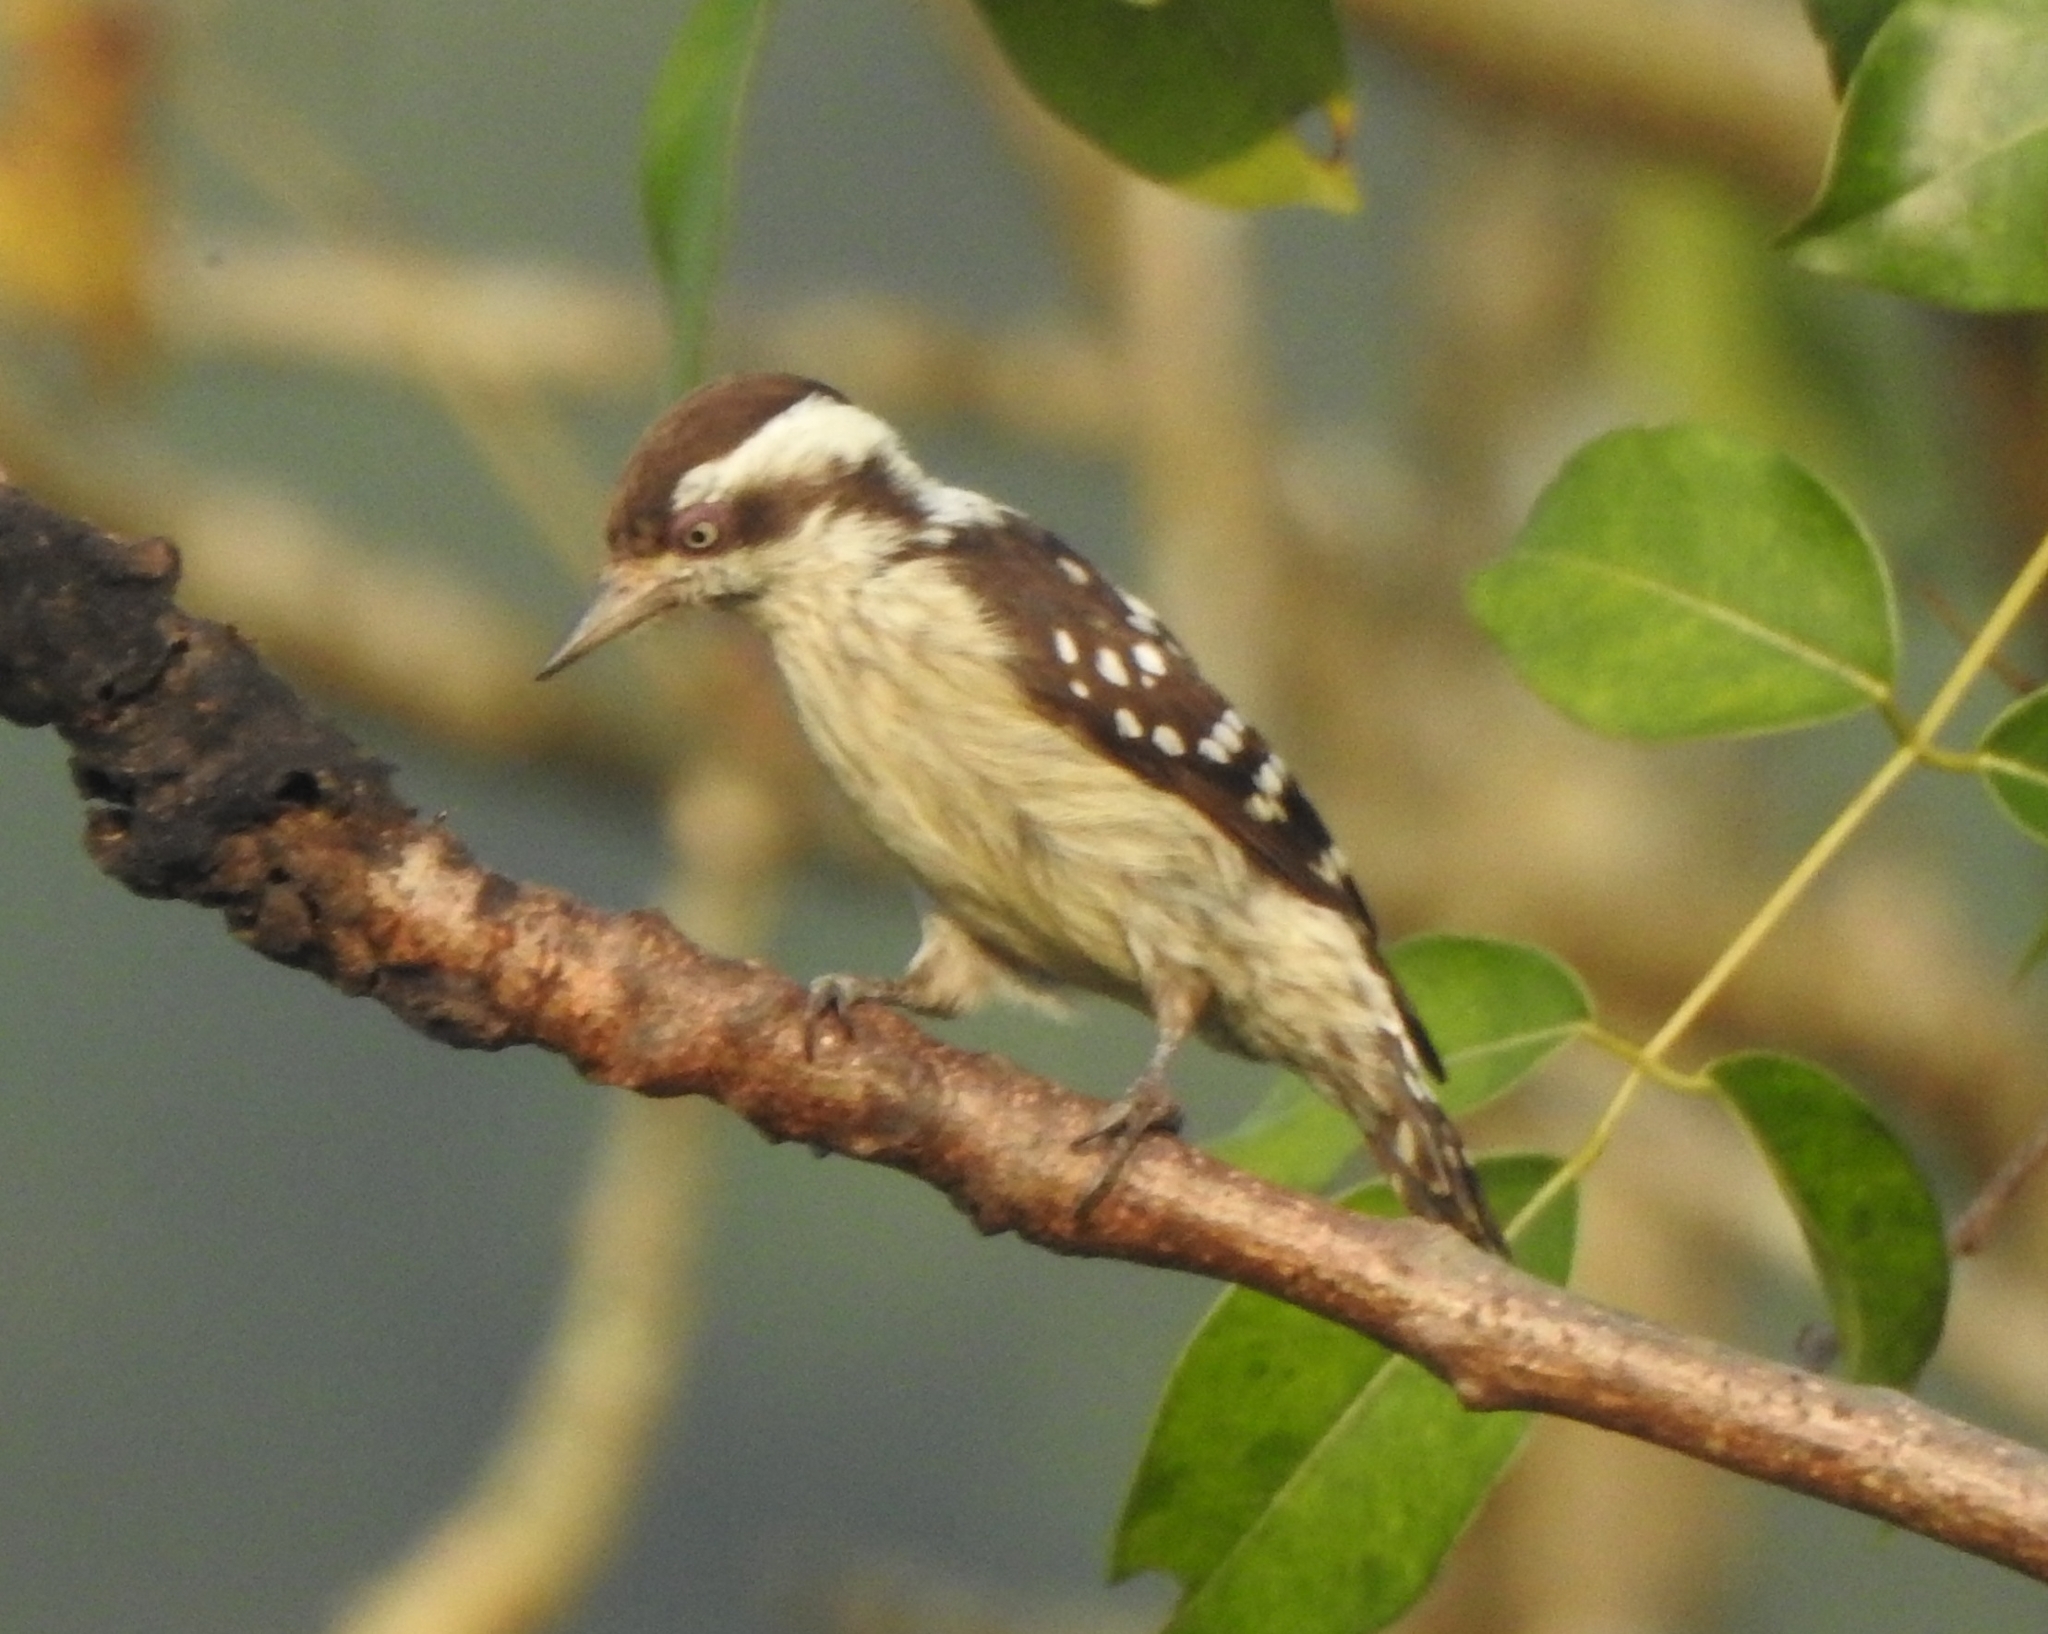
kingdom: Animalia
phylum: Chordata
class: Aves
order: Piciformes
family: Picidae
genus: Yungipicus
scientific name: Yungipicus nanus
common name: Brown-capped pygmy woodpecker
